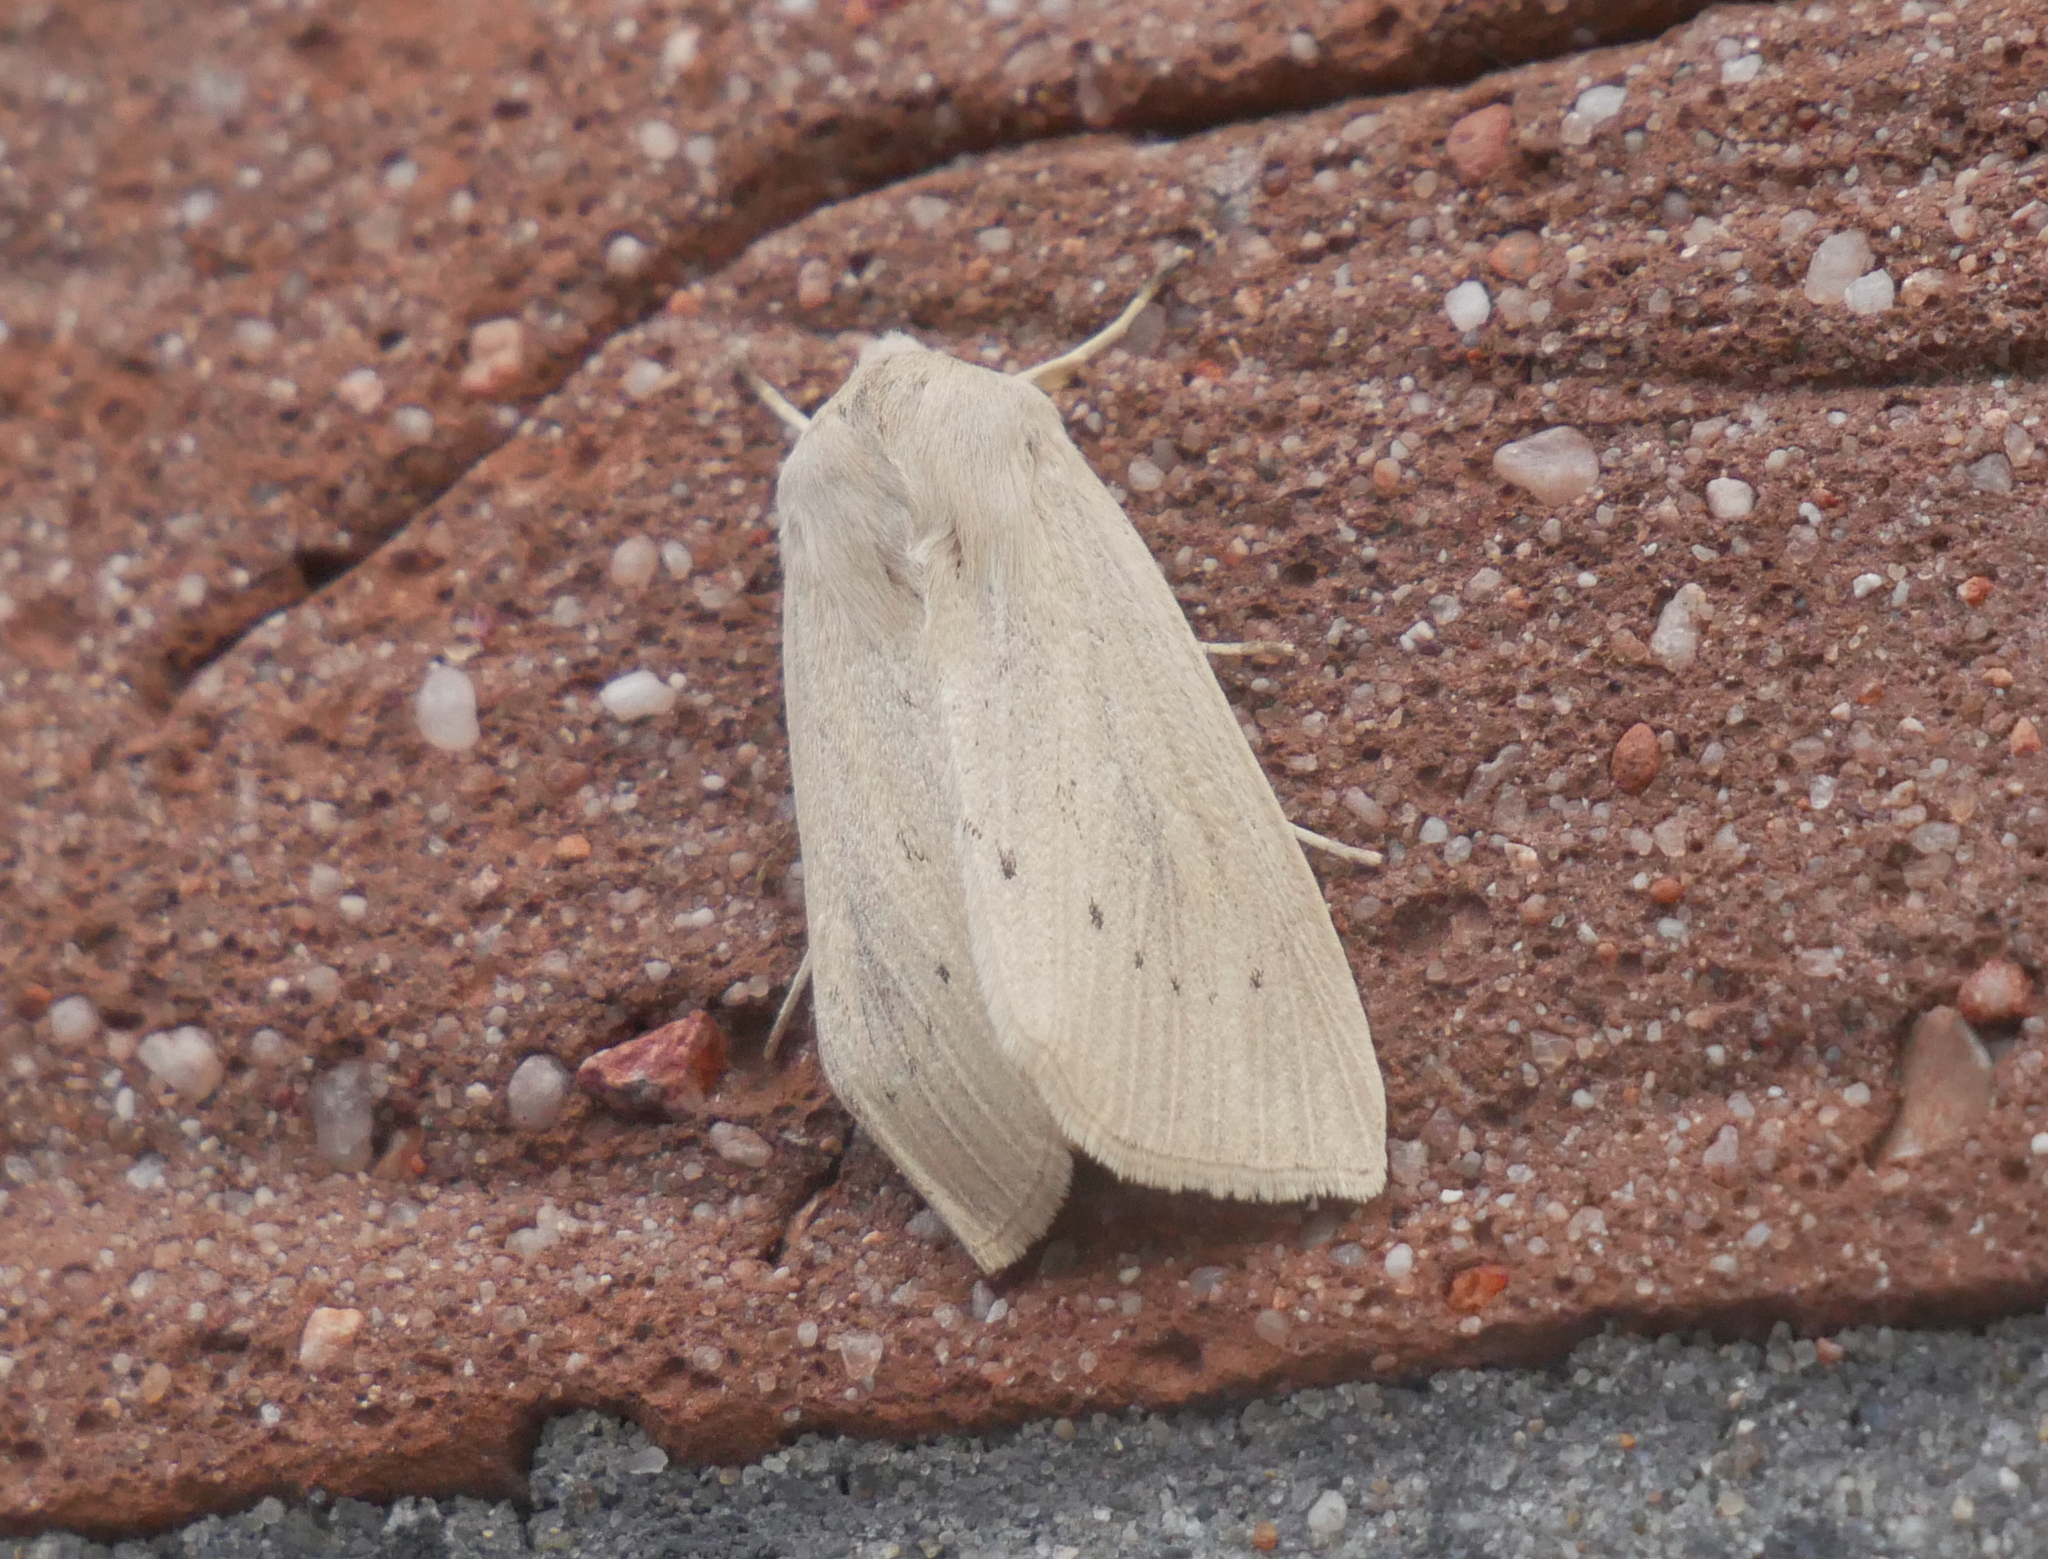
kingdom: Animalia
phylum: Arthropoda
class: Insecta
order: Lepidoptera
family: Noctuidae
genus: Rhizedra
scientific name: Rhizedra lutosa
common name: Large wainscot
